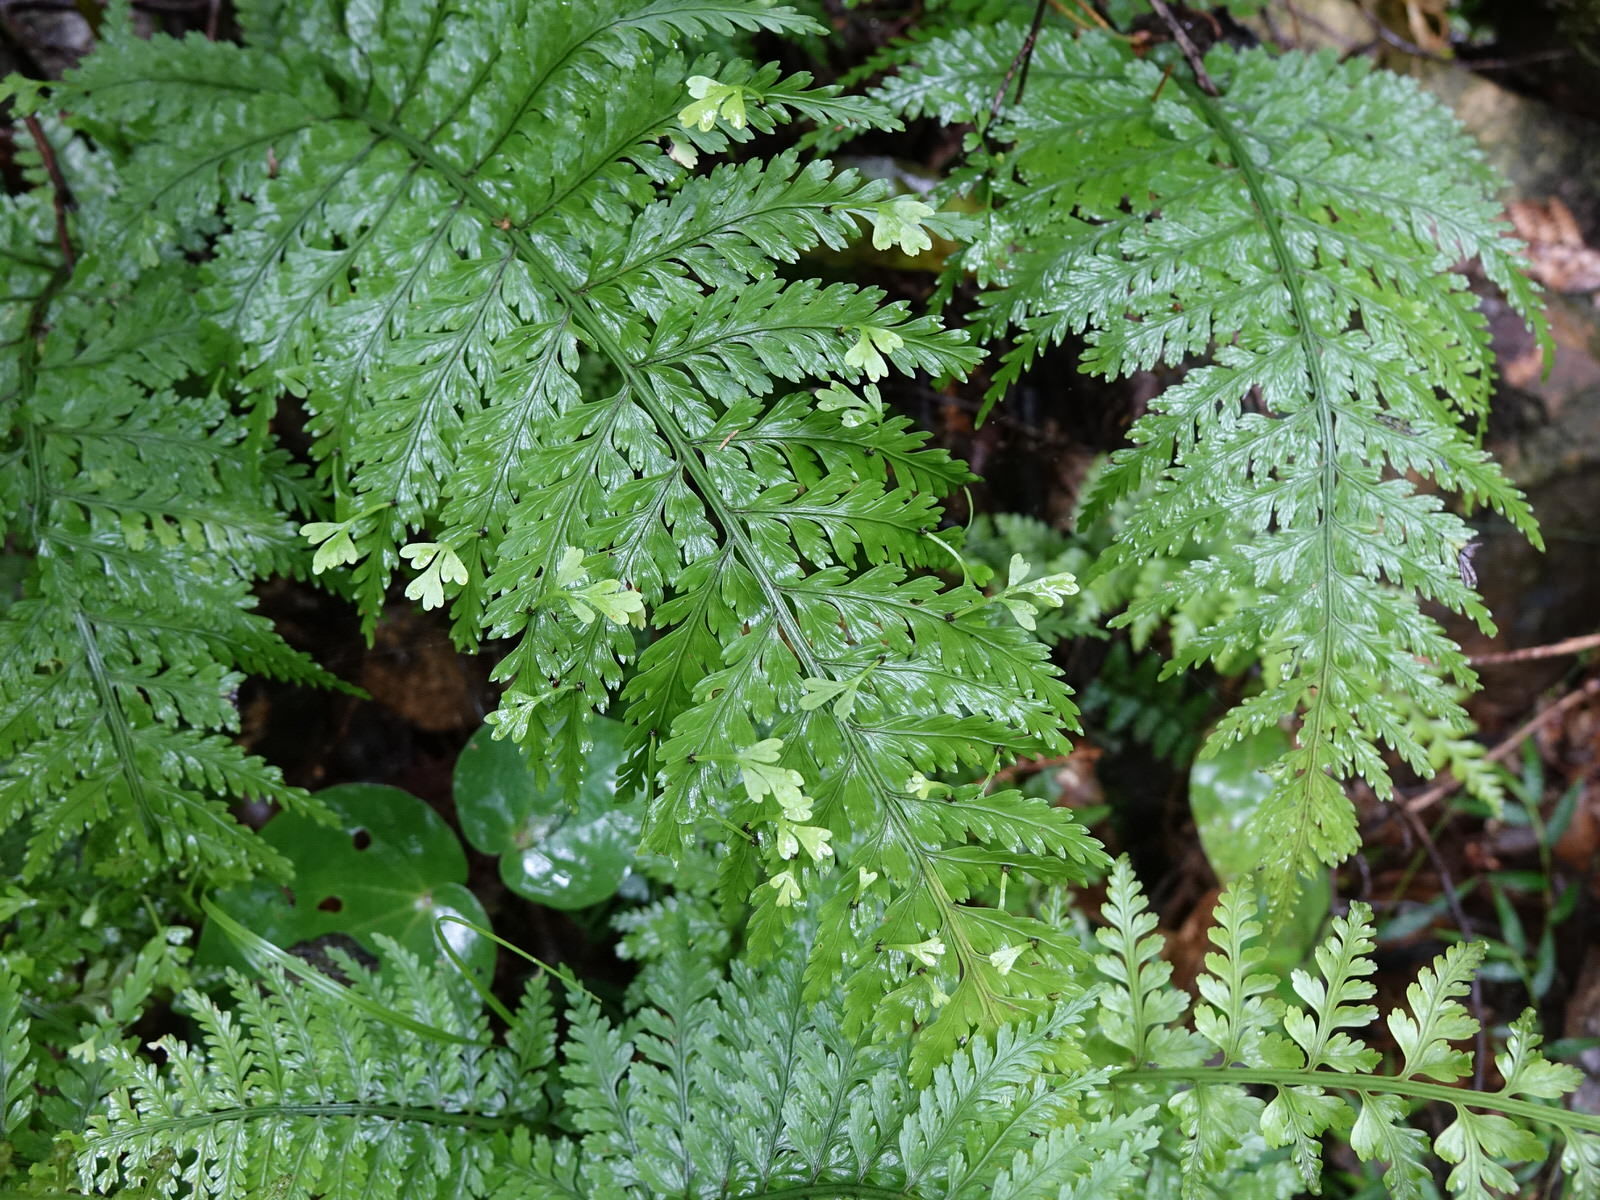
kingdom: Plantae
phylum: Tracheophyta
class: Polypodiopsida
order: Polypodiales
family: Aspleniaceae
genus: Asplenium
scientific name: Asplenium bulbiferum
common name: Mother fern
